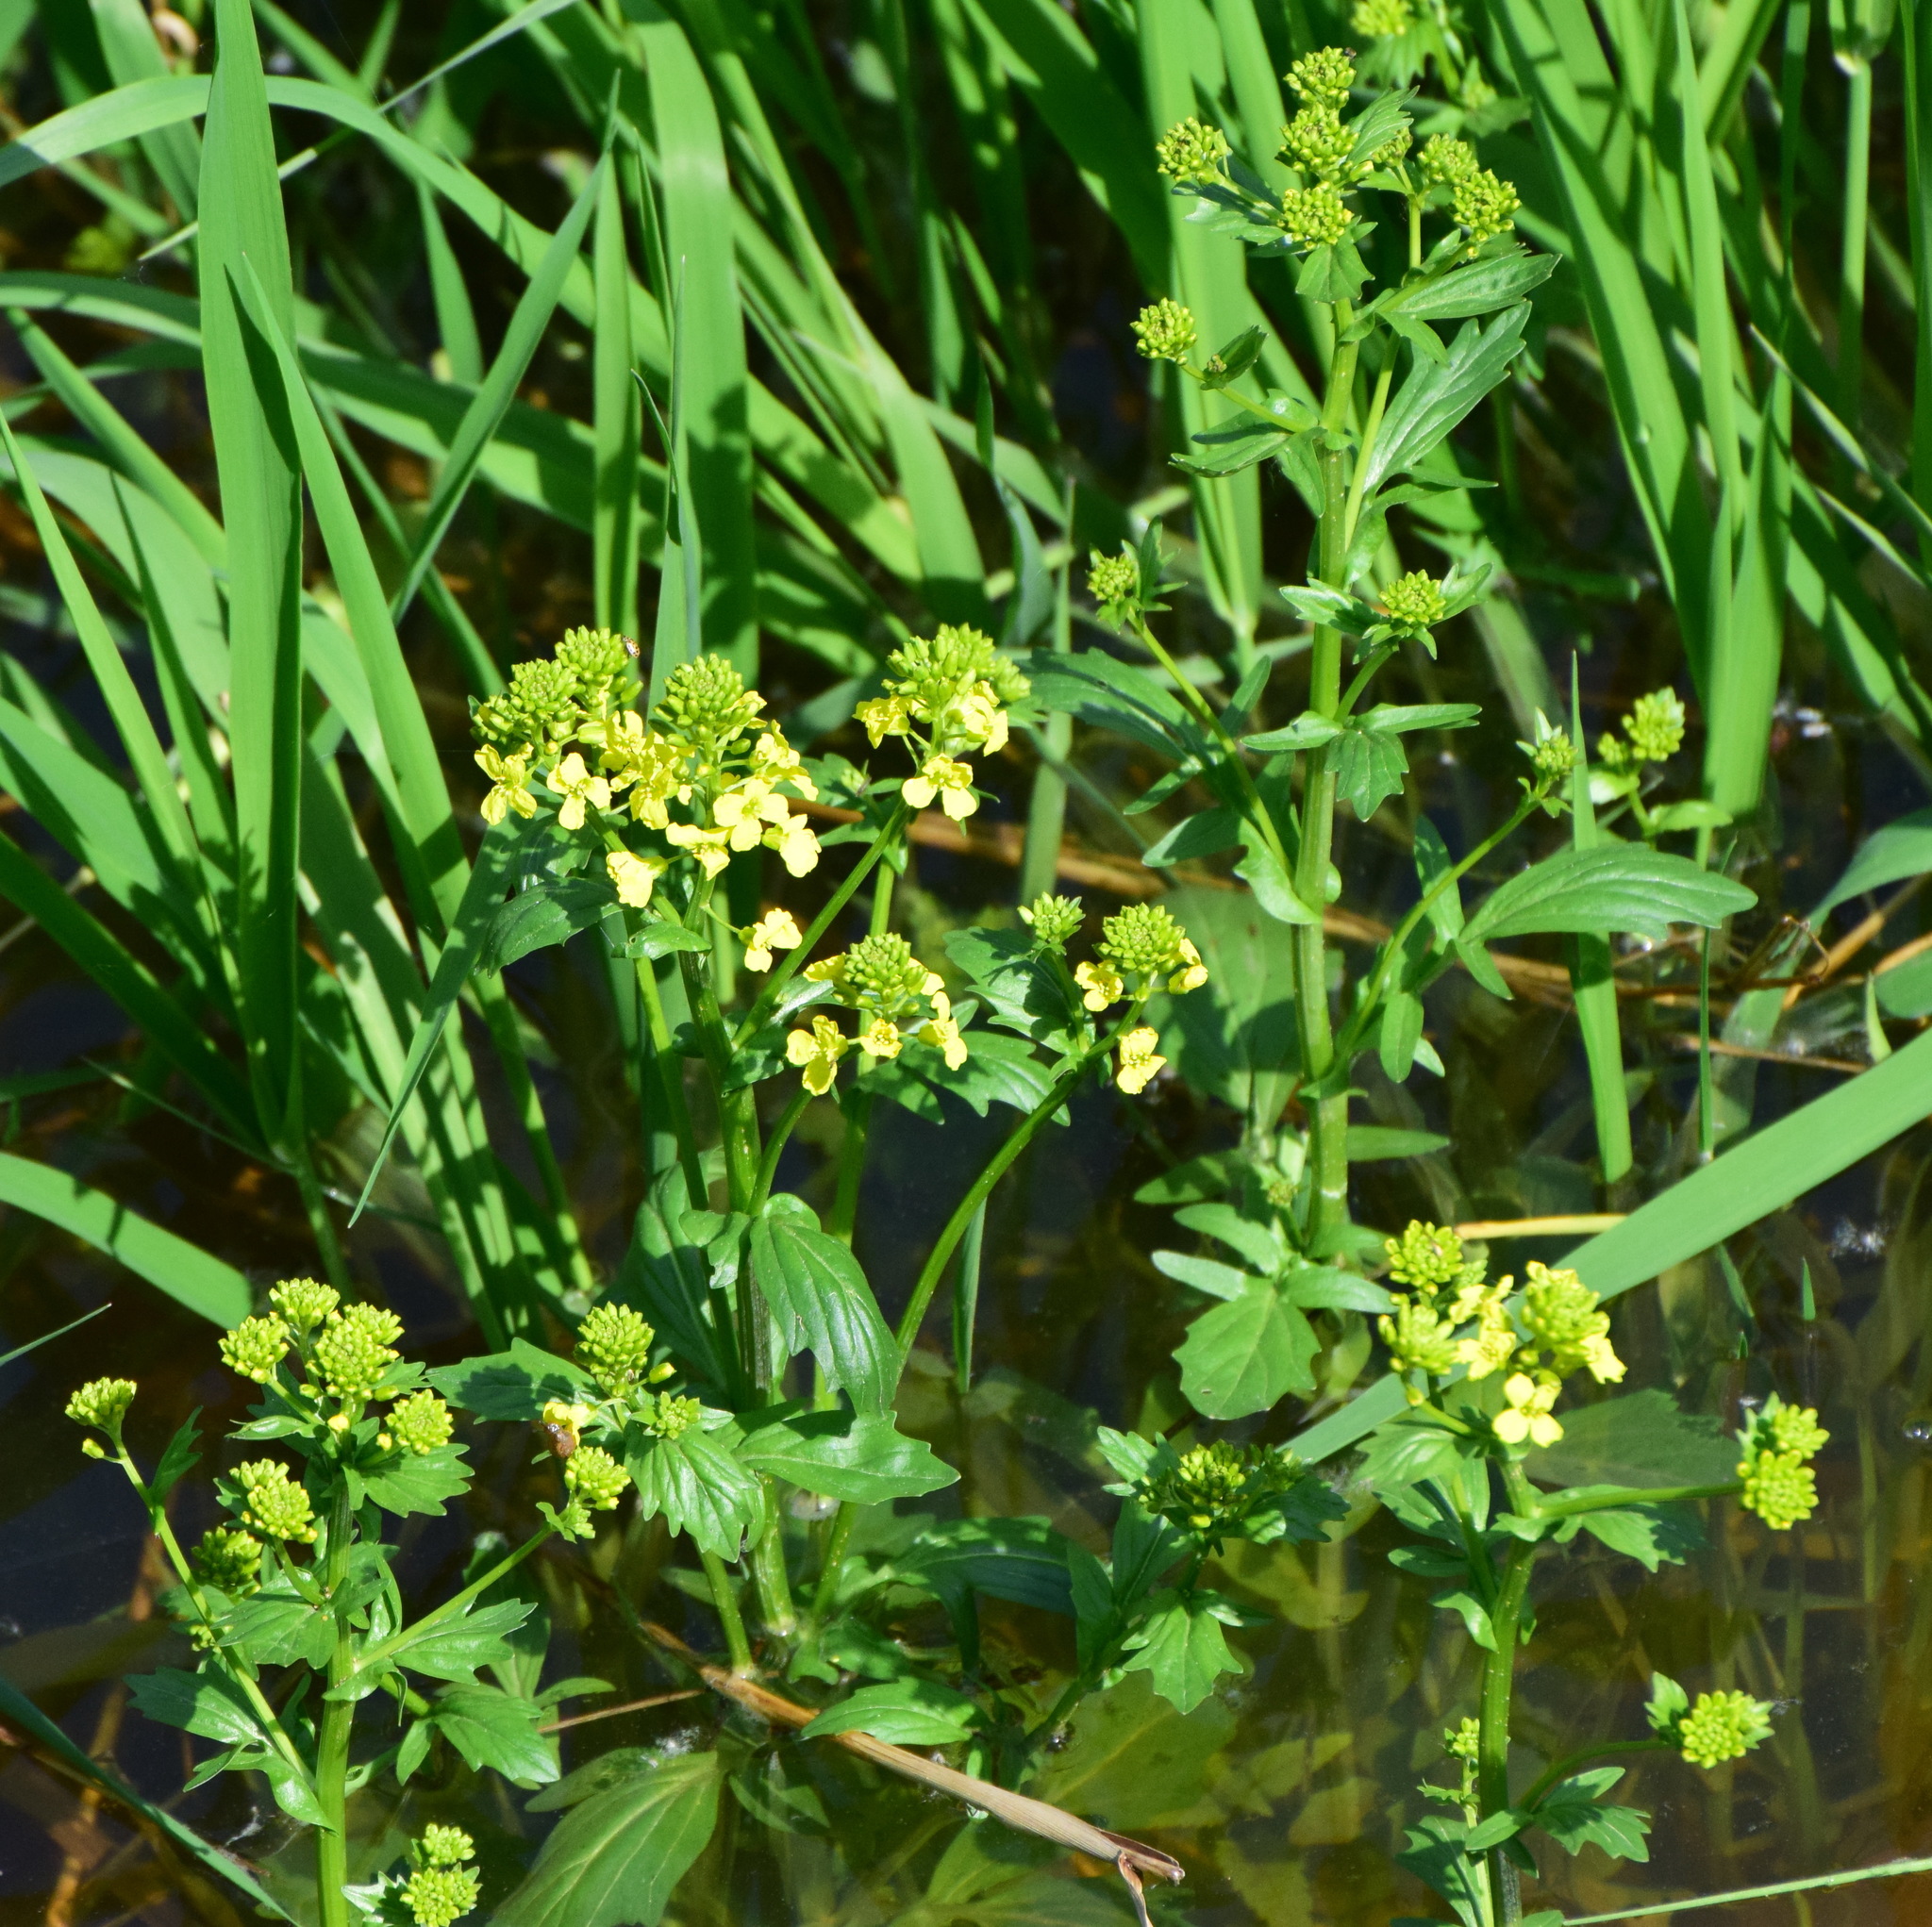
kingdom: Plantae
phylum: Tracheophyta
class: Magnoliopsida
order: Brassicales
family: Brassicaceae
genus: Barbarea
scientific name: Barbarea vulgaris
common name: Cressy-greens
